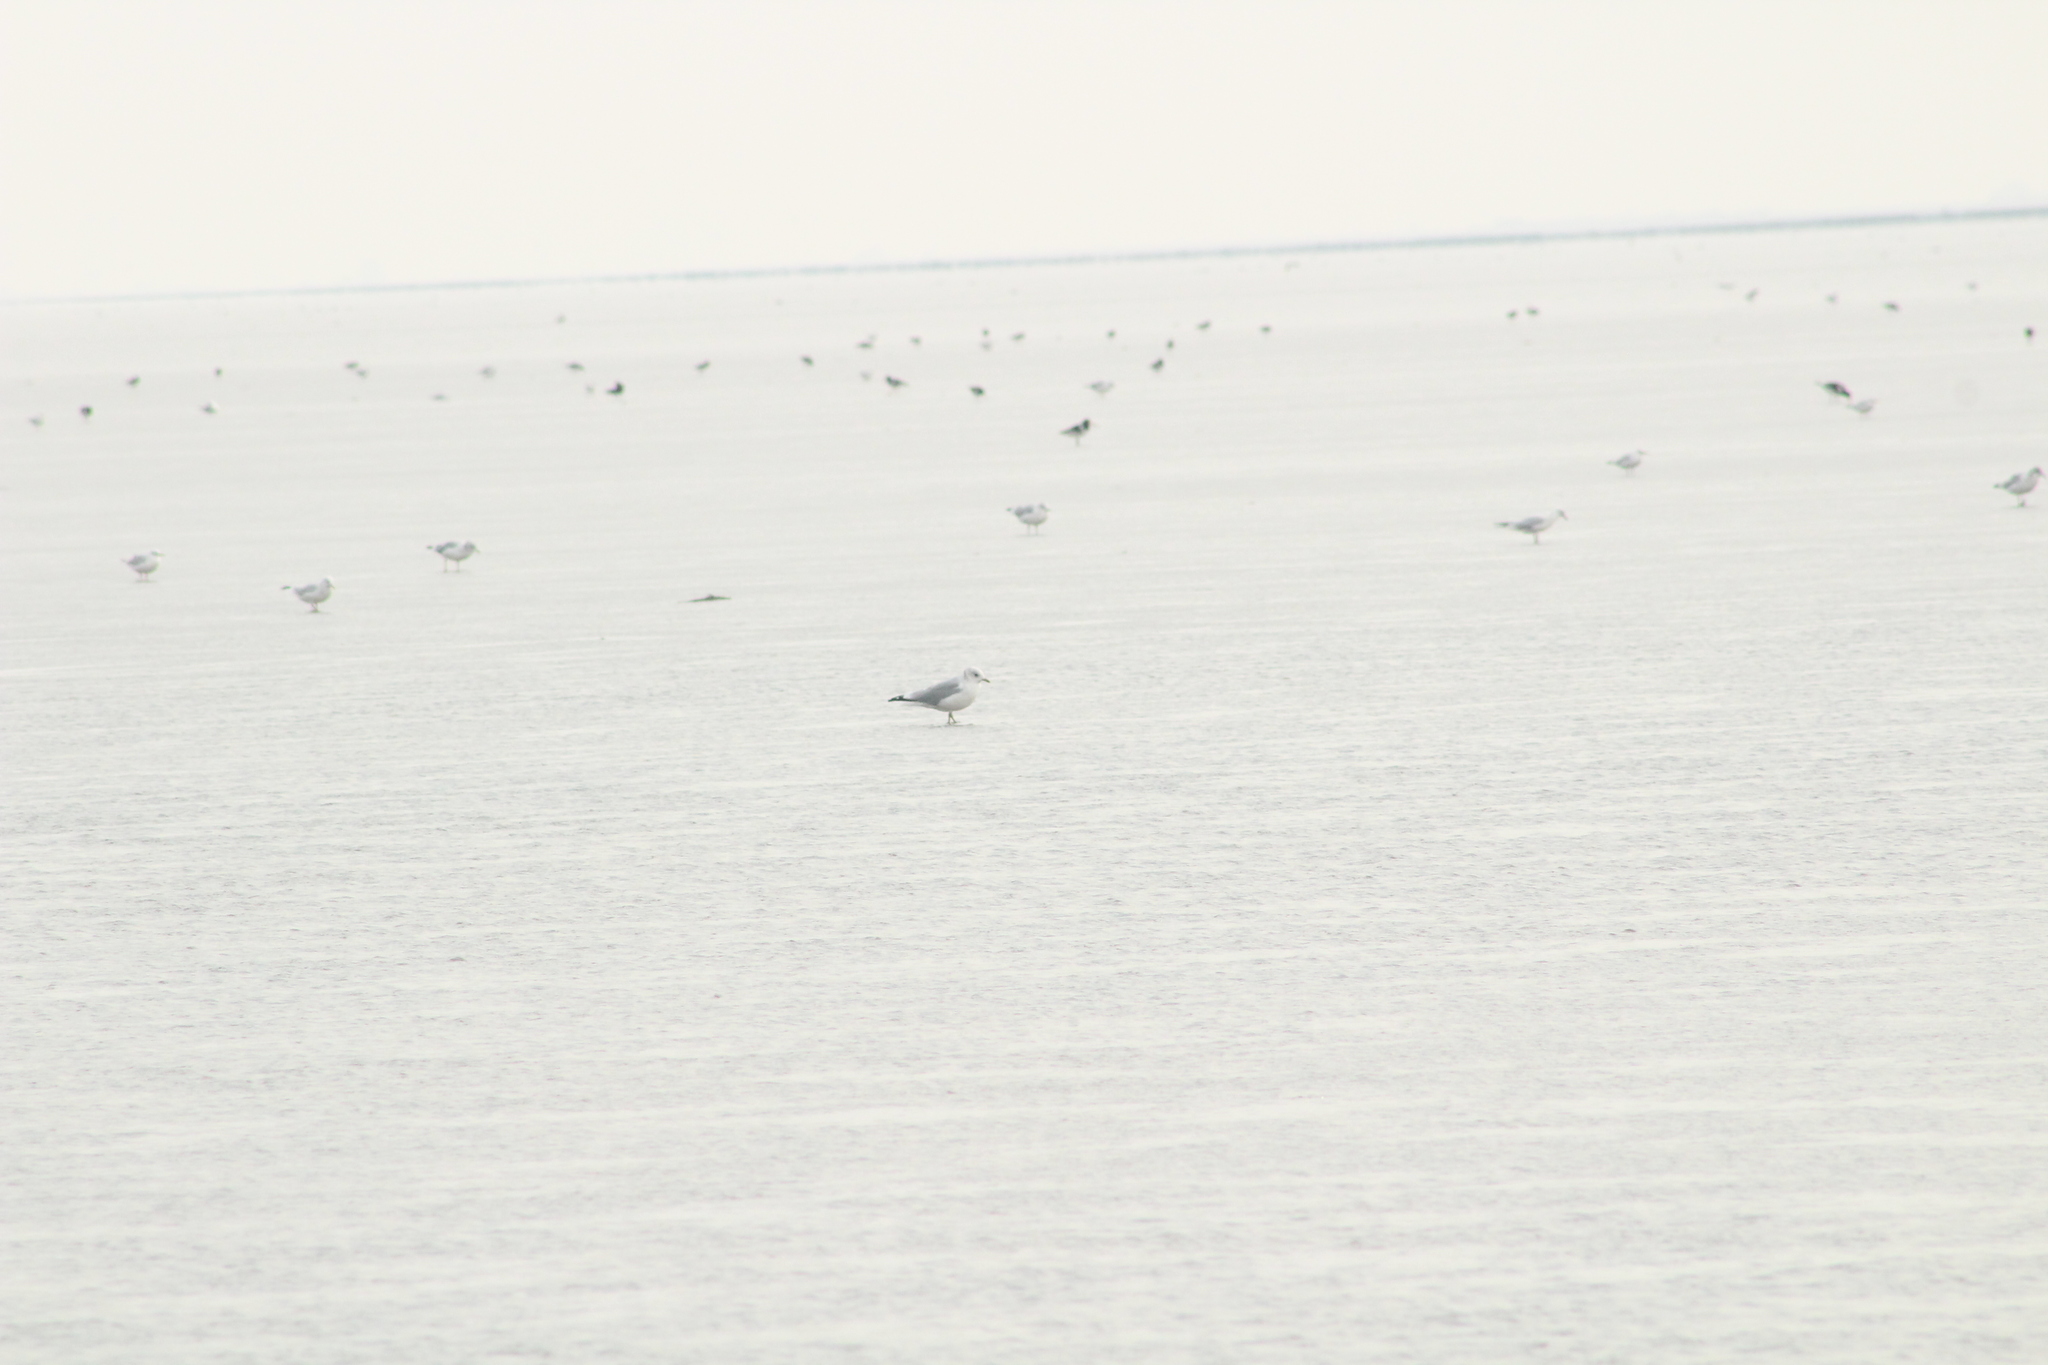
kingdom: Animalia
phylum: Chordata
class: Aves
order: Charadriiformes
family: Laridae
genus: Larus
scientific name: Larus canus
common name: Mew gull
